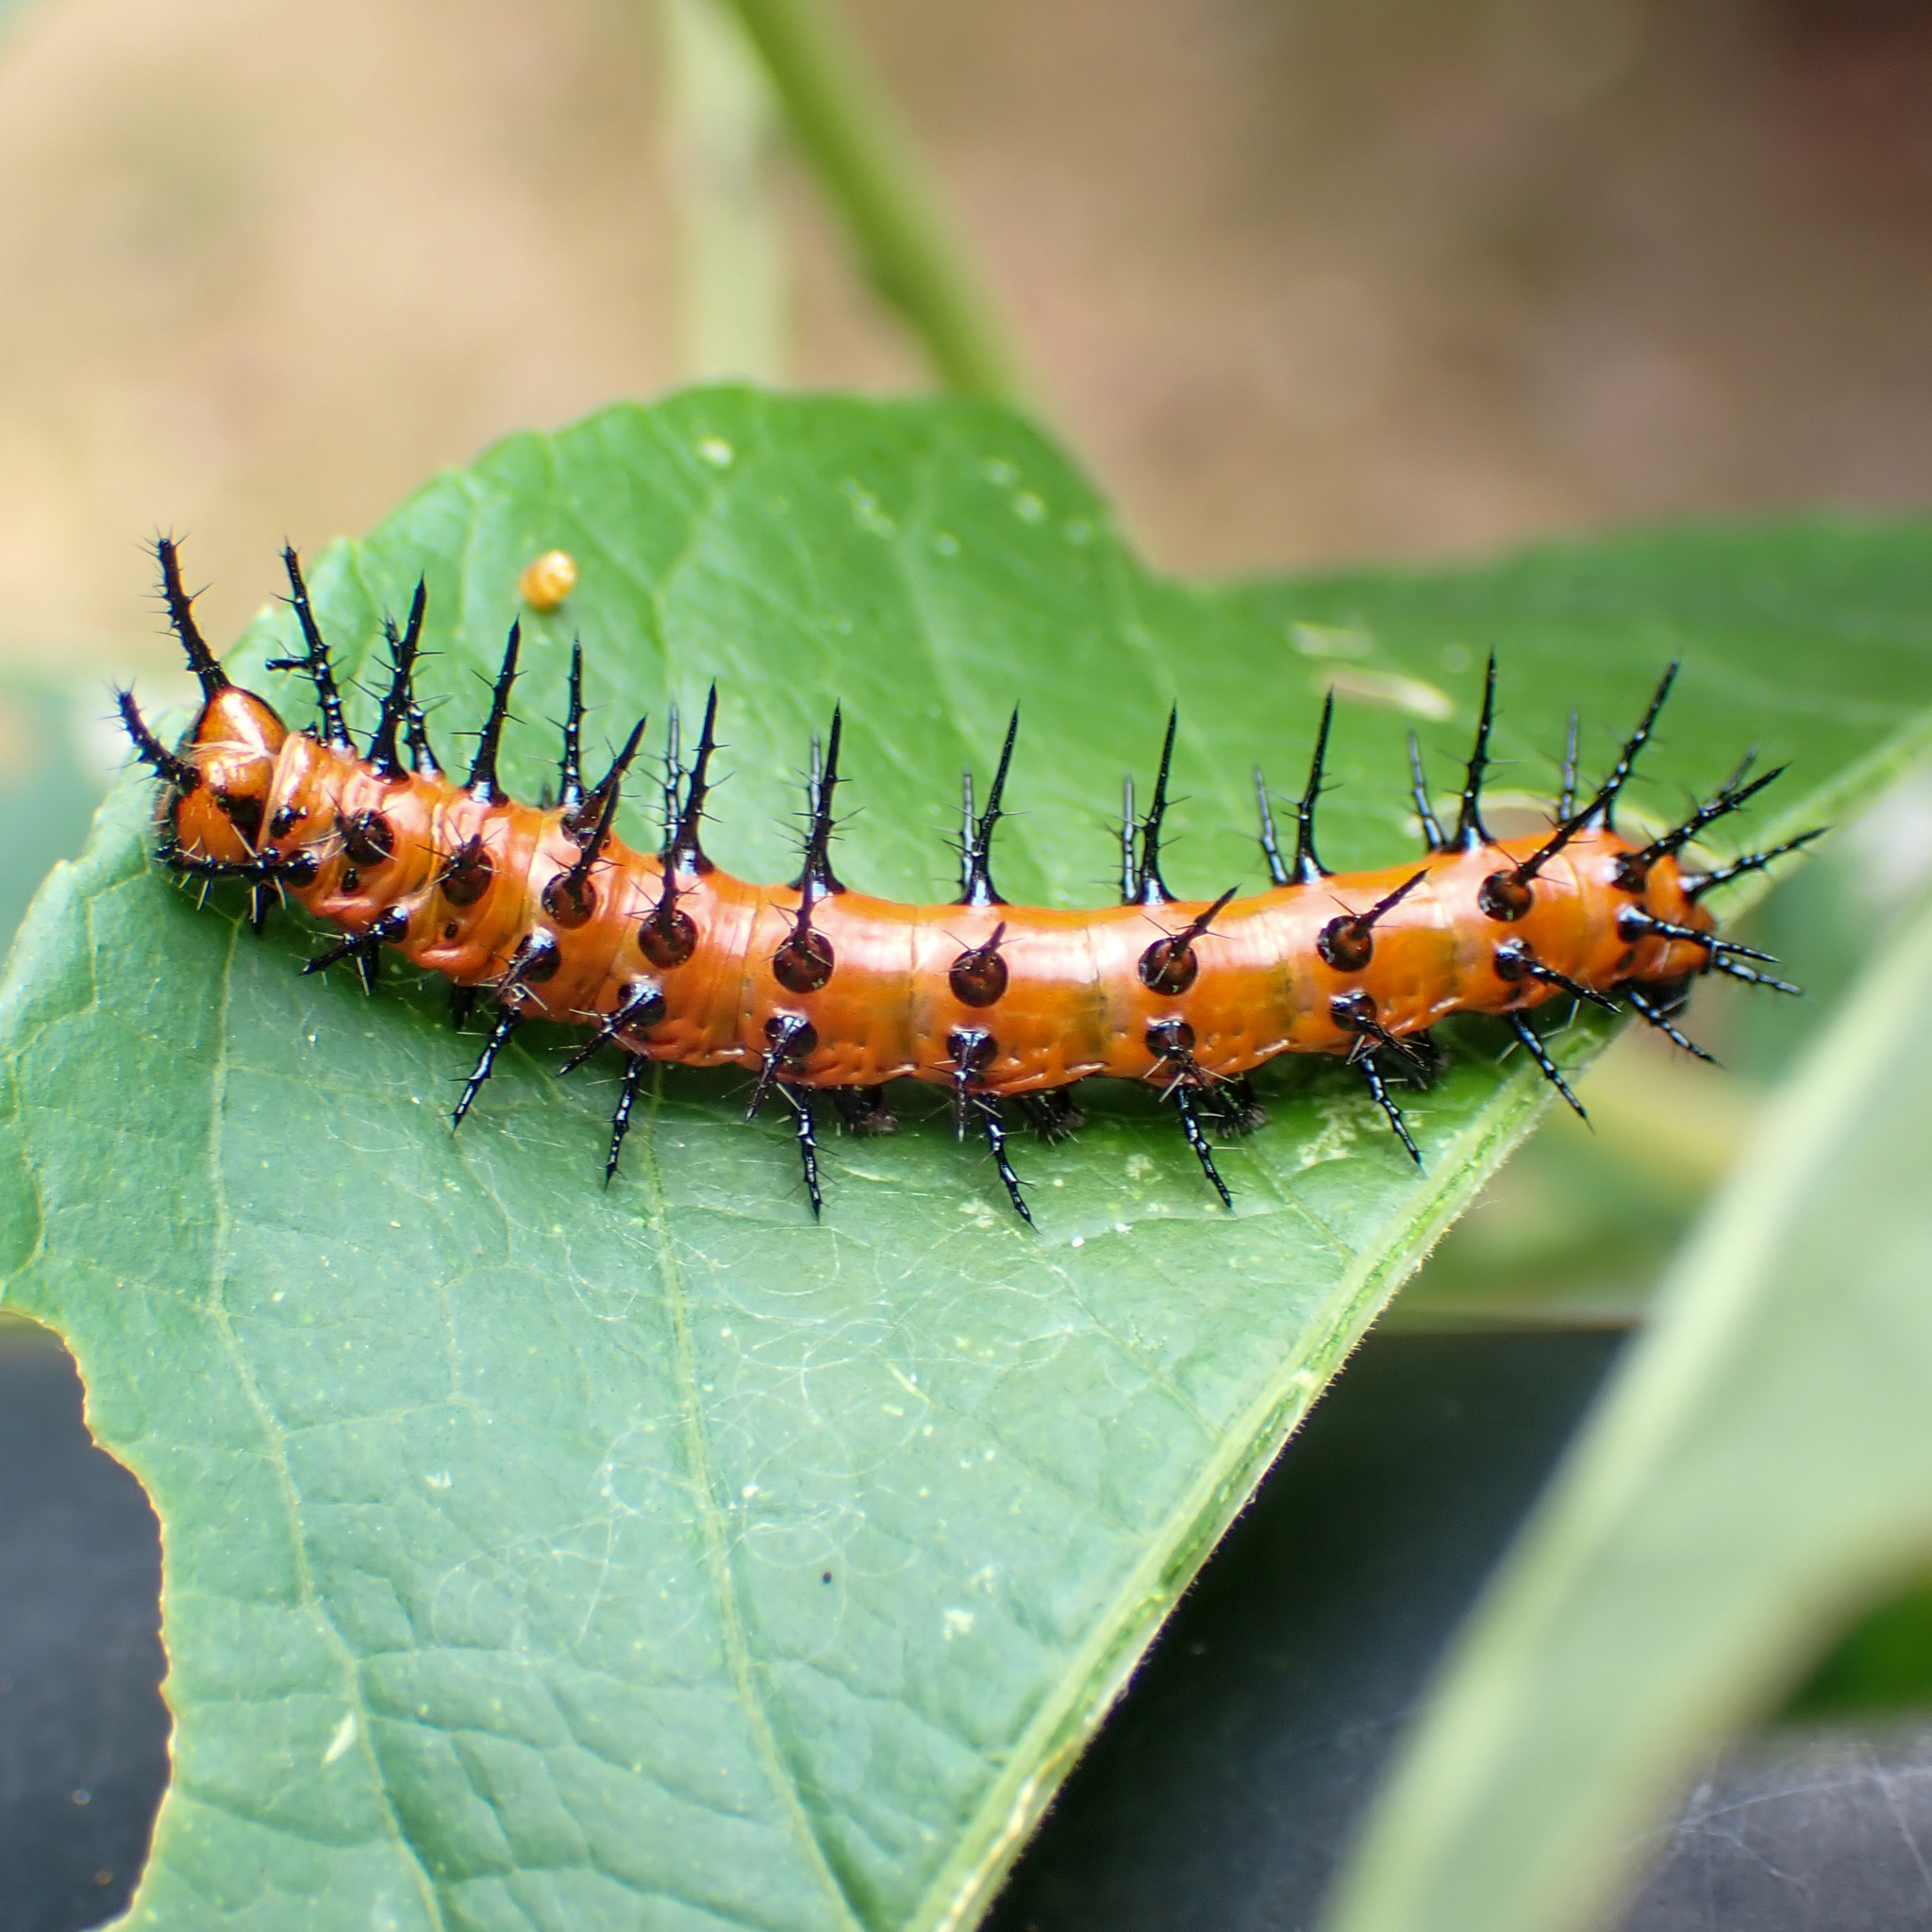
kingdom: Animalia
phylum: Arthropoda
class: Insecta
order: Lepidoptera
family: Nymphalidae
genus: Dione
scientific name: Dione vanillae
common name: Gulf fritillary
